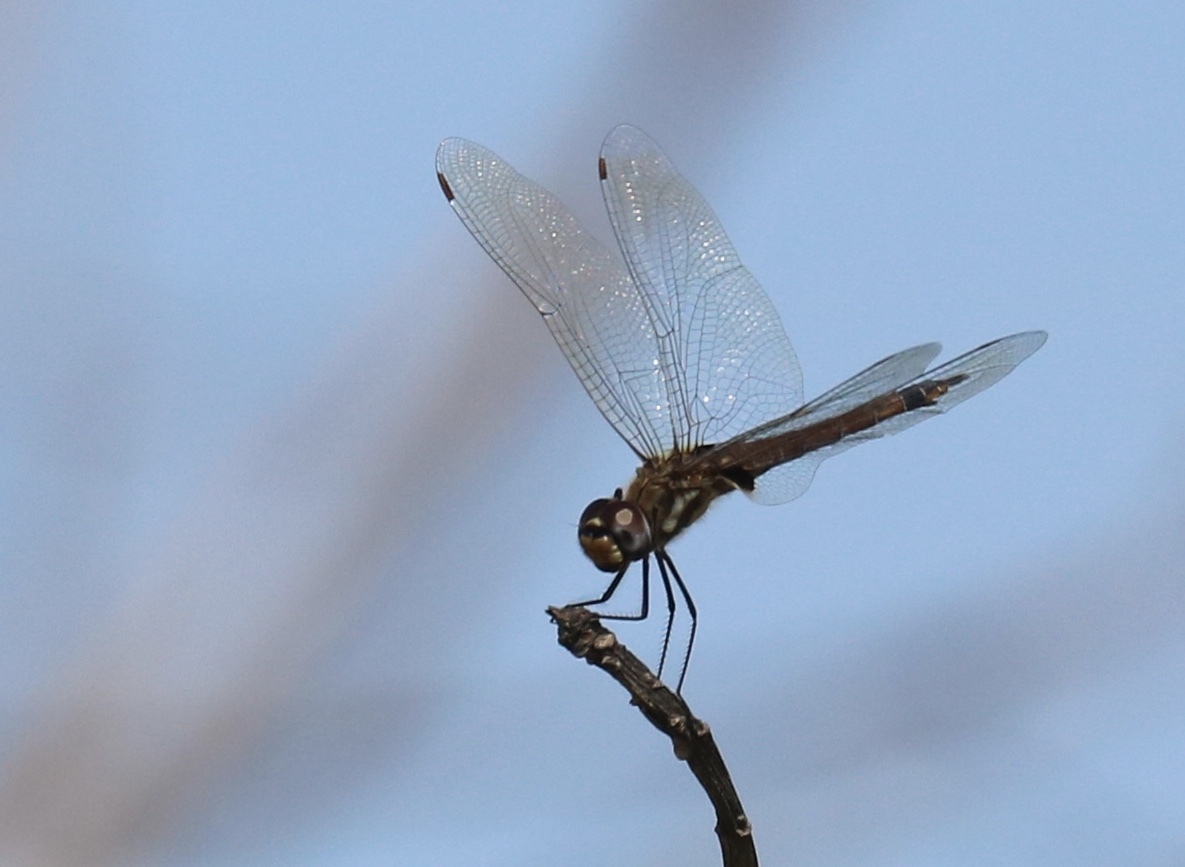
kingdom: Animalia
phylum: Arthropoda
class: Insecta
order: Odonata
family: Libellulidae
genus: Tramea
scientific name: Tramea cophysa
